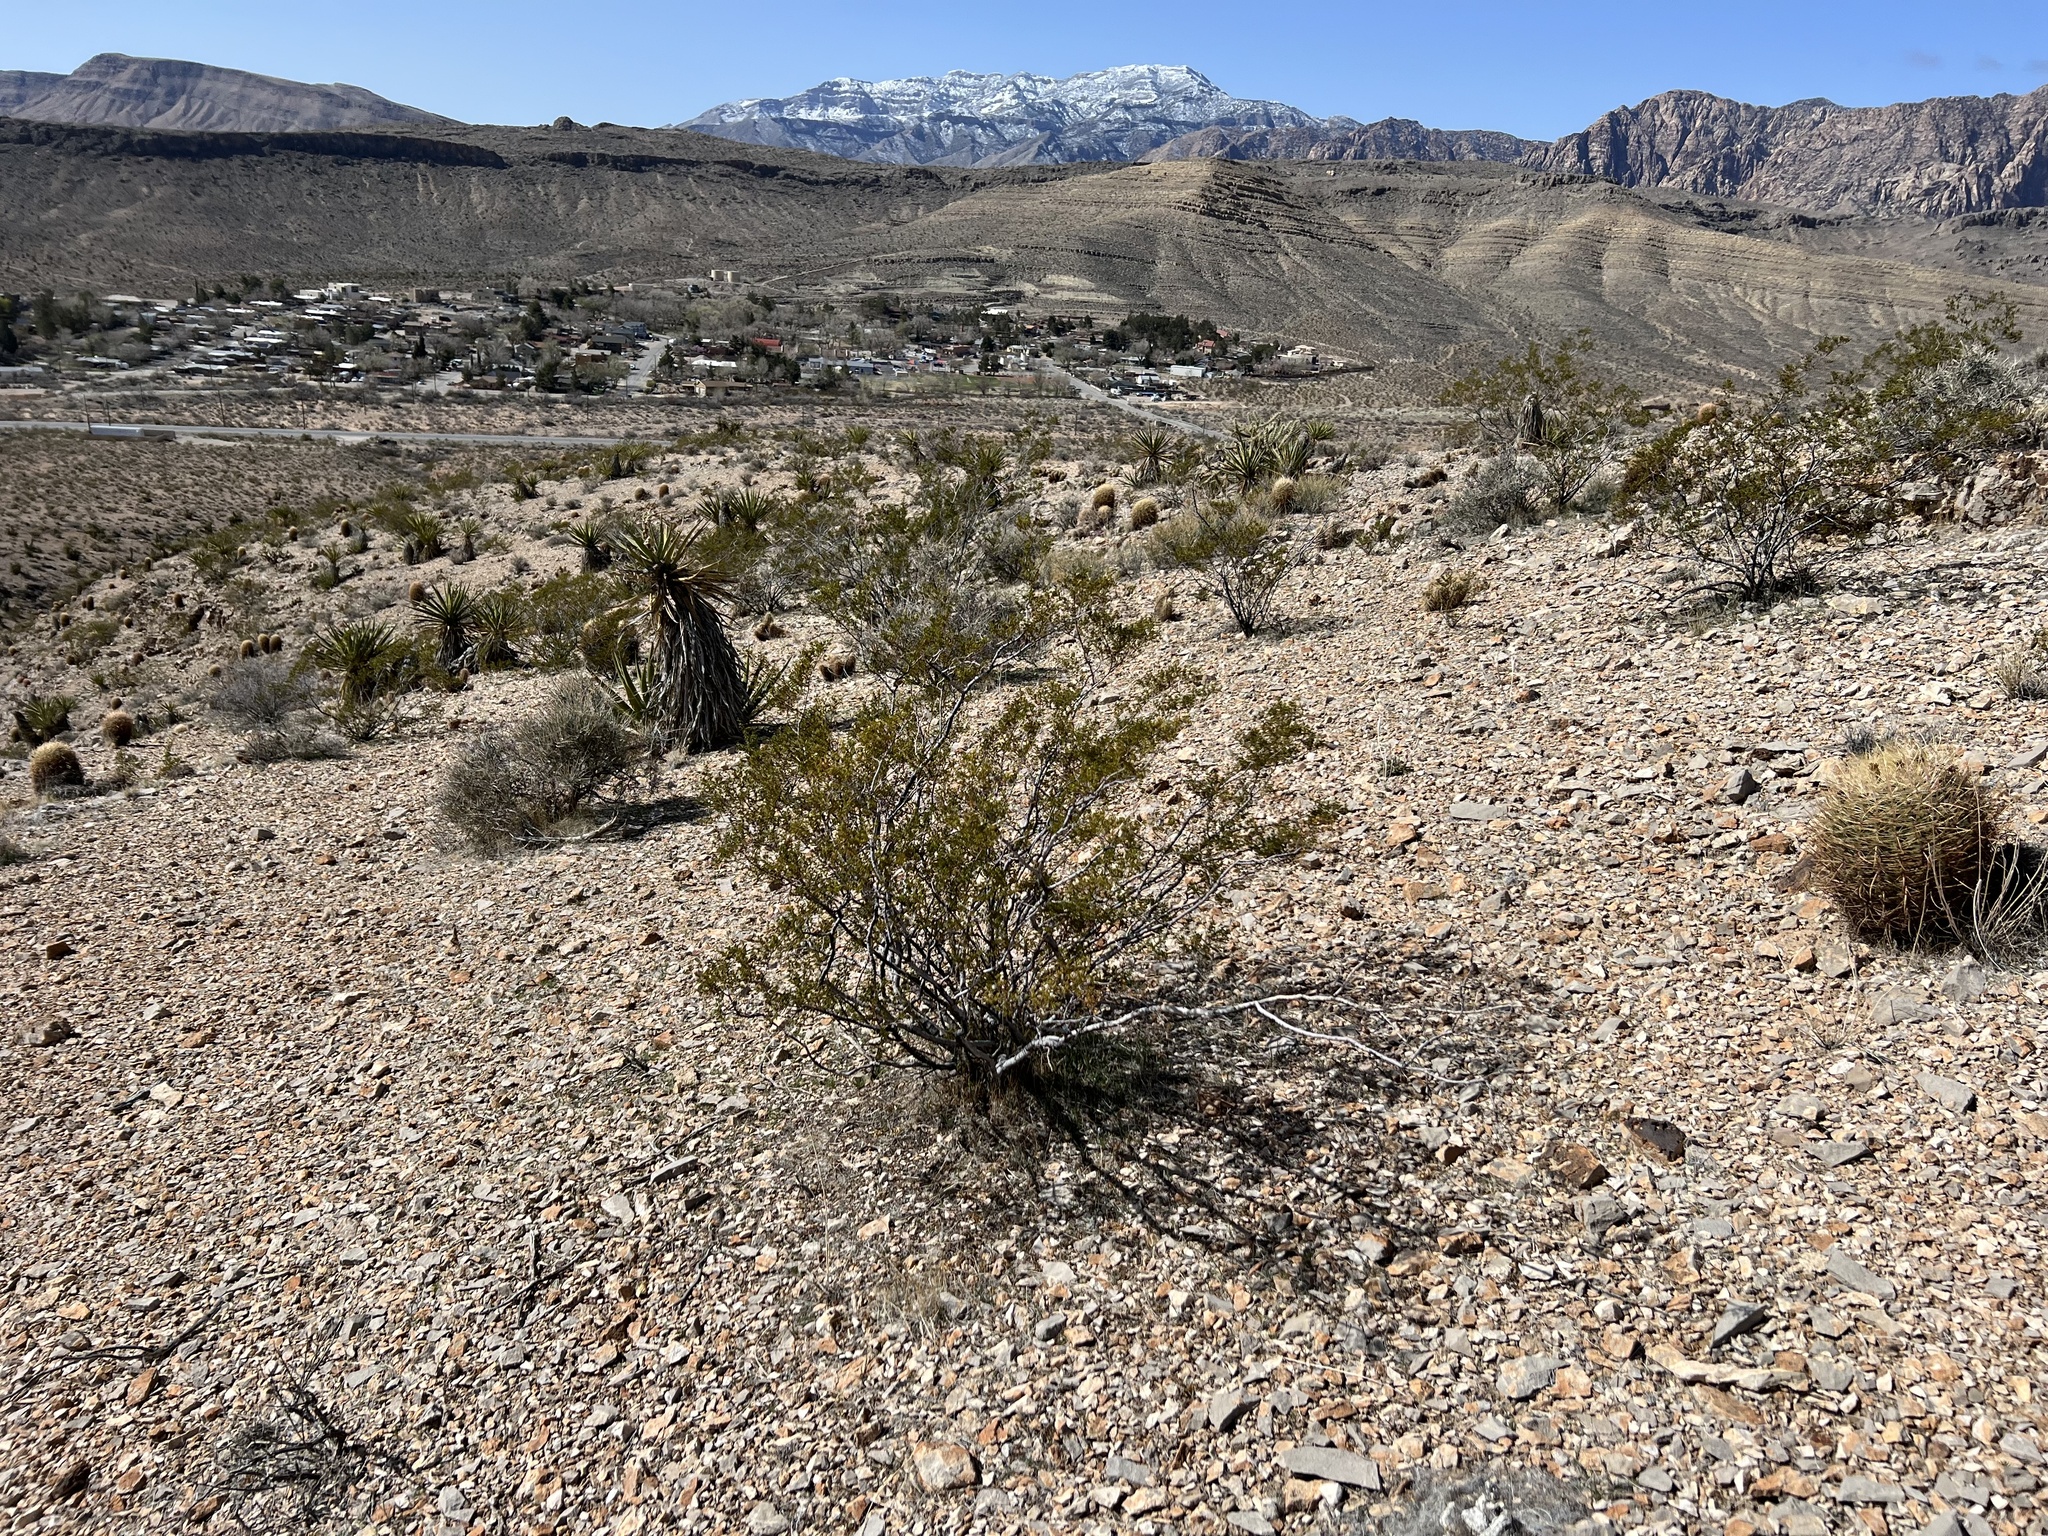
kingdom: Plantae
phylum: Tracheophyta
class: Magnoliopsida
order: Zygophyllales
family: Zygophyllaceae
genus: Larrea
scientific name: Larrea tridentata
